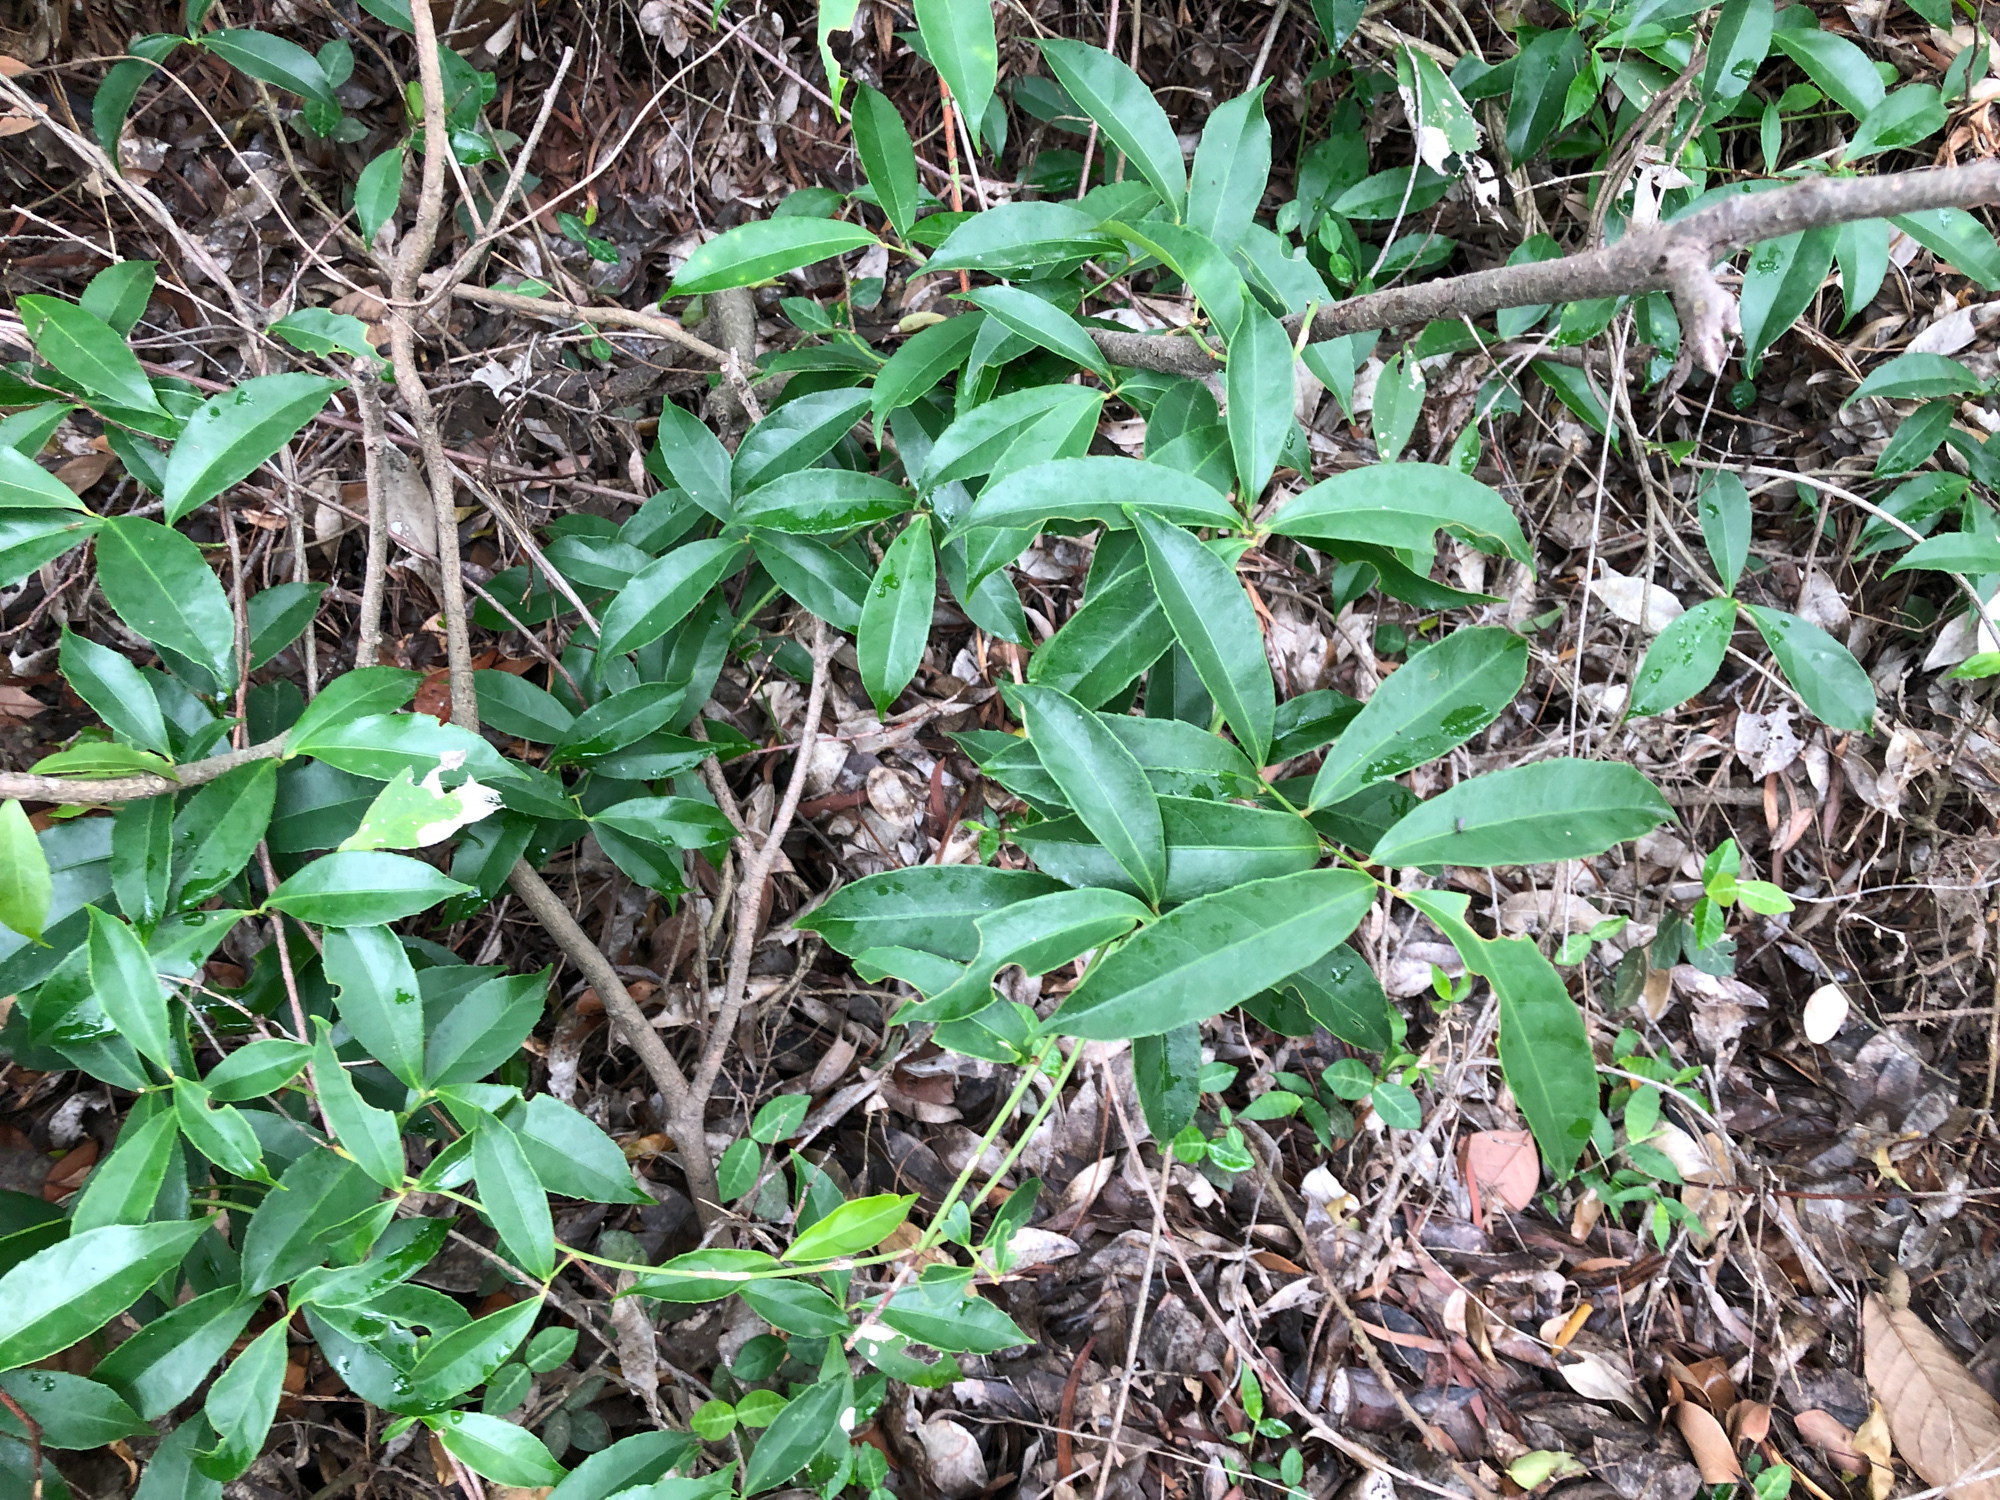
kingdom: Plantae
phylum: Tracheophyta
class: Magnoliopsida
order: Celastrales
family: Celastraceae
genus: Celastrus
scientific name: Celastrus hindsii
